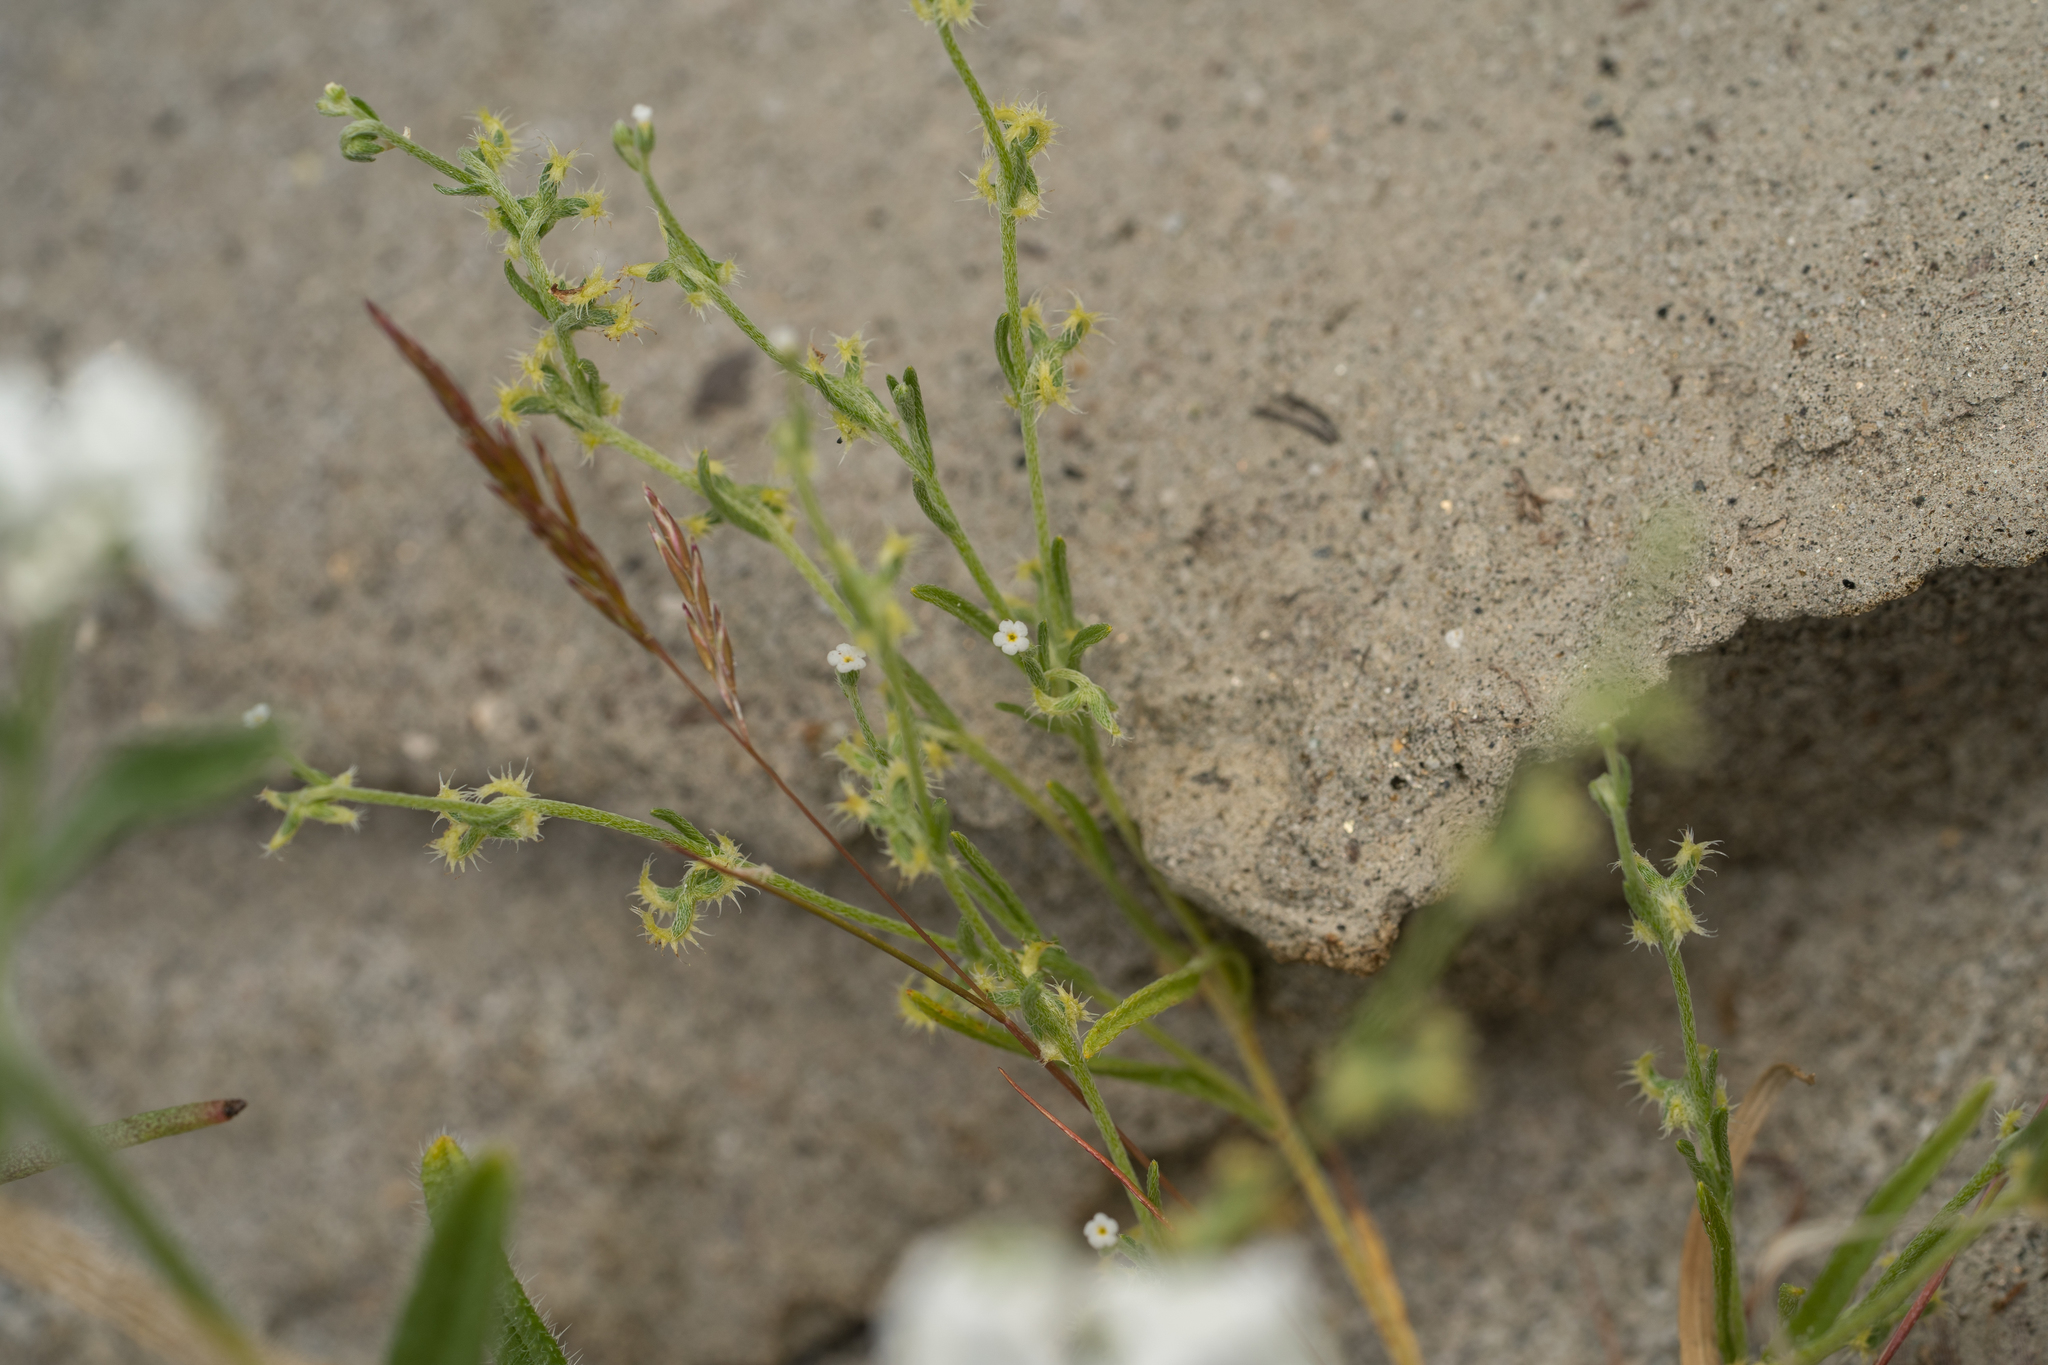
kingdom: Plantae
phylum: Tracheophyta
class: Magnoliopsida
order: Boraginales
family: Boraginaceae
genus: Pectocarya
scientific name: Pectocarya recurvata
